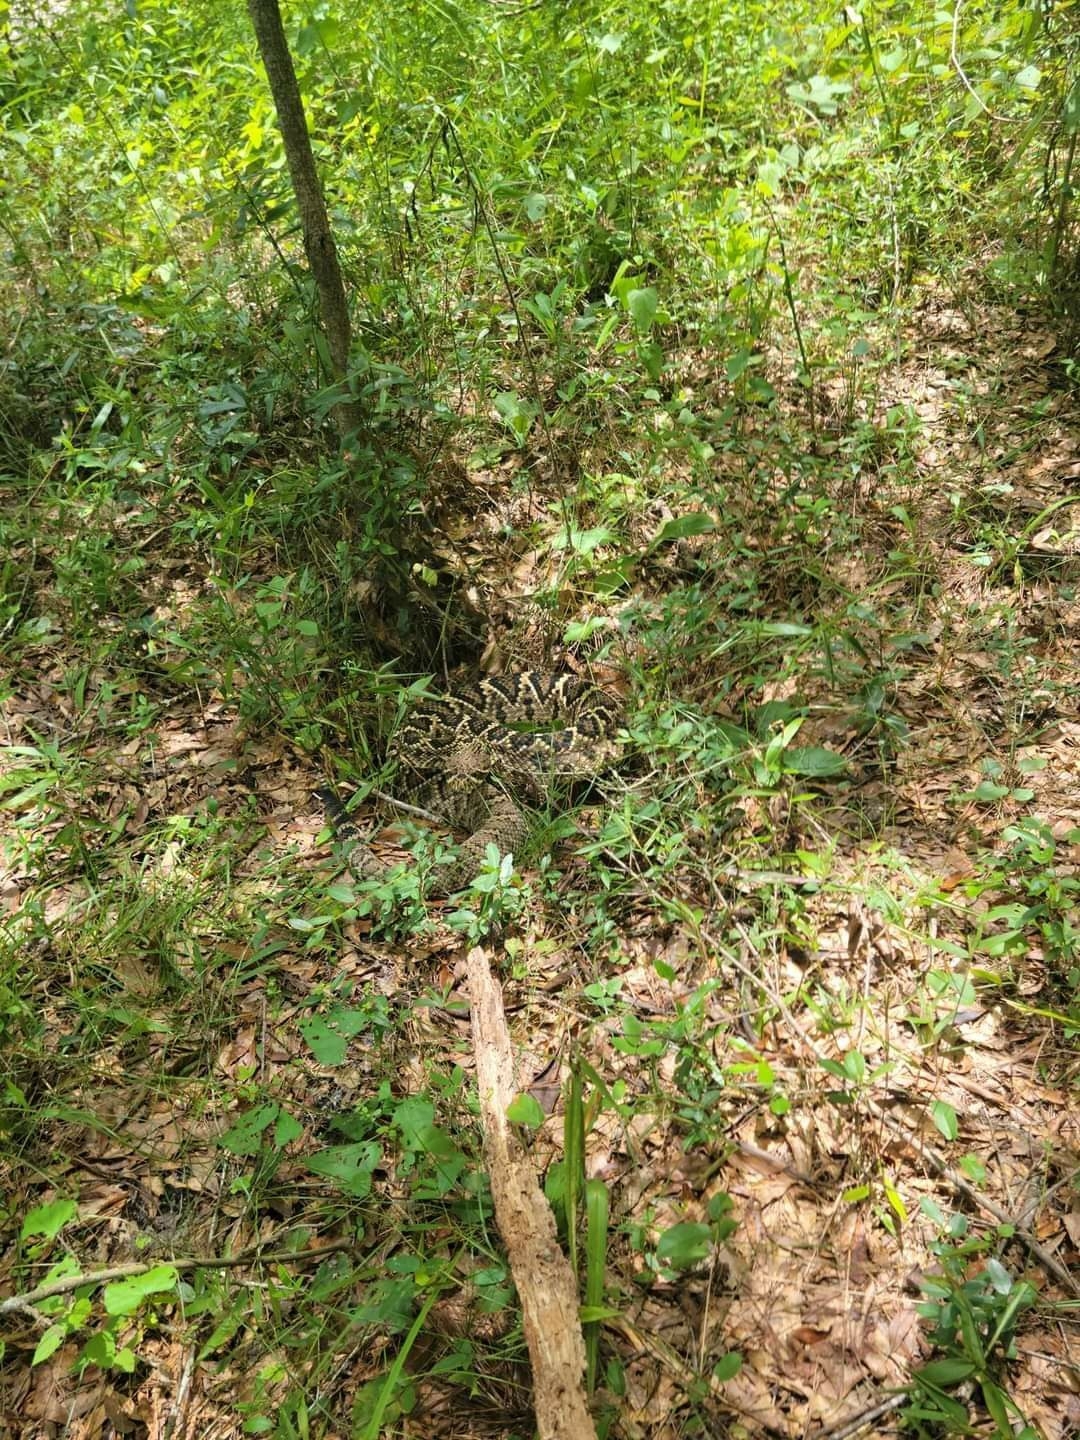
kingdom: Animalia
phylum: Chordata
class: Squamata
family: Viperidae
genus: Crotalus
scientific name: Crotalus adamanteus
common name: Eastern diamondback rattlesnake
